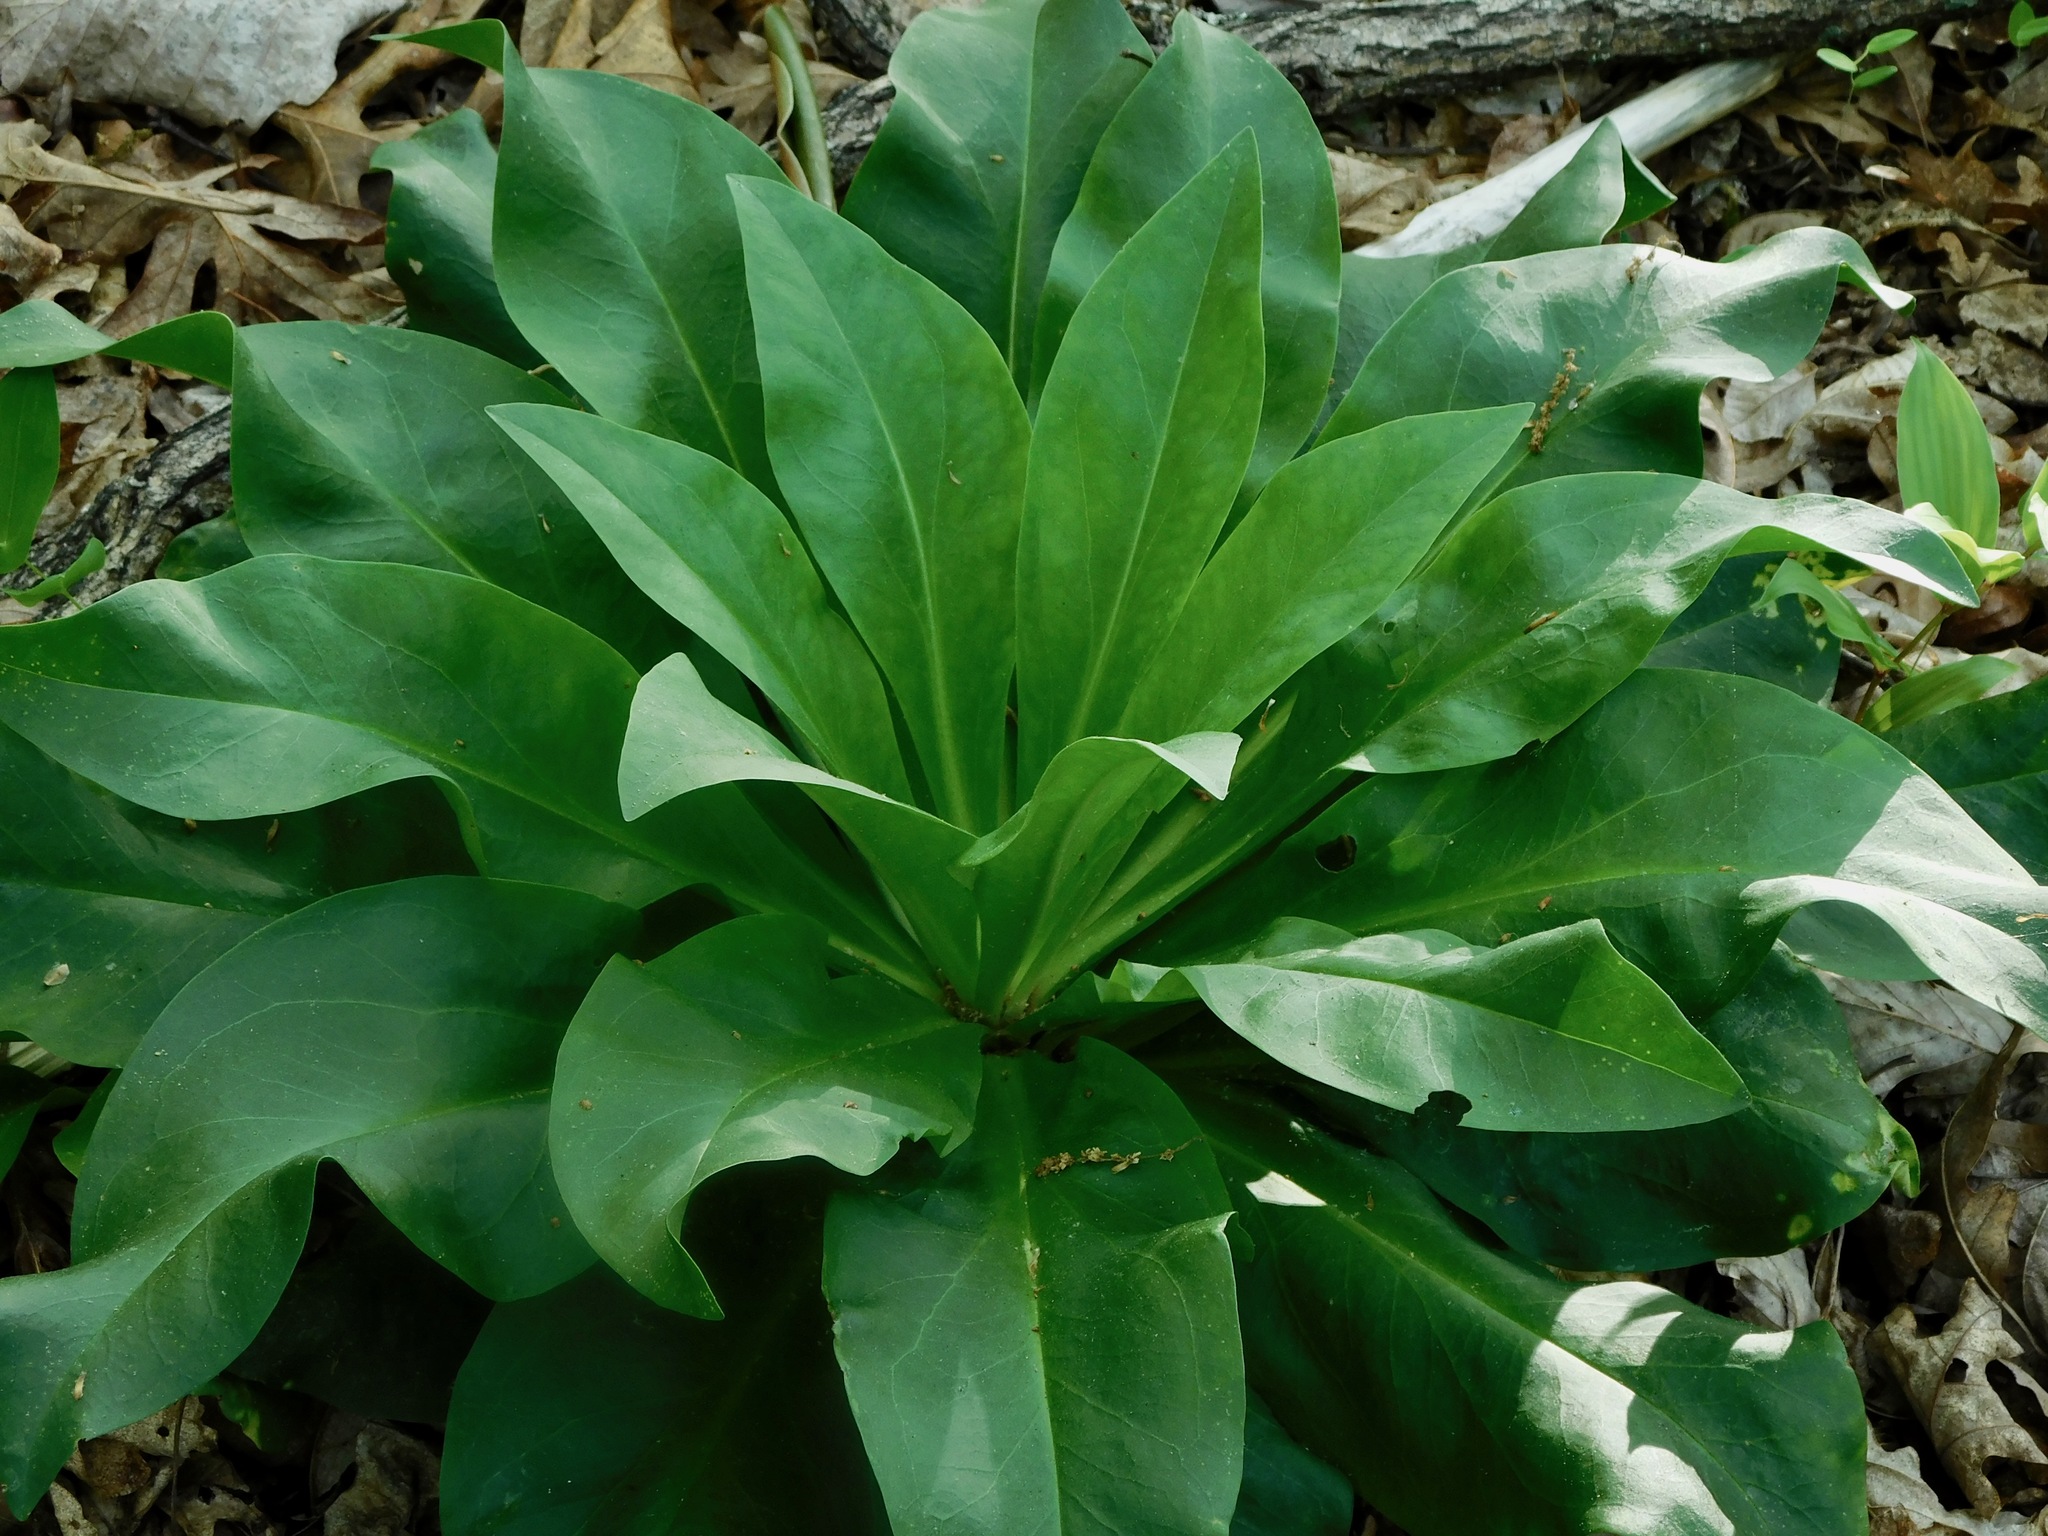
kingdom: Plantae
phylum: Tracheophyta
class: Magnoliopsida
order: Gentianales
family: Gentianaceae
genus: Frasera
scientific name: Frasera caroliniensis
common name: American columbo
